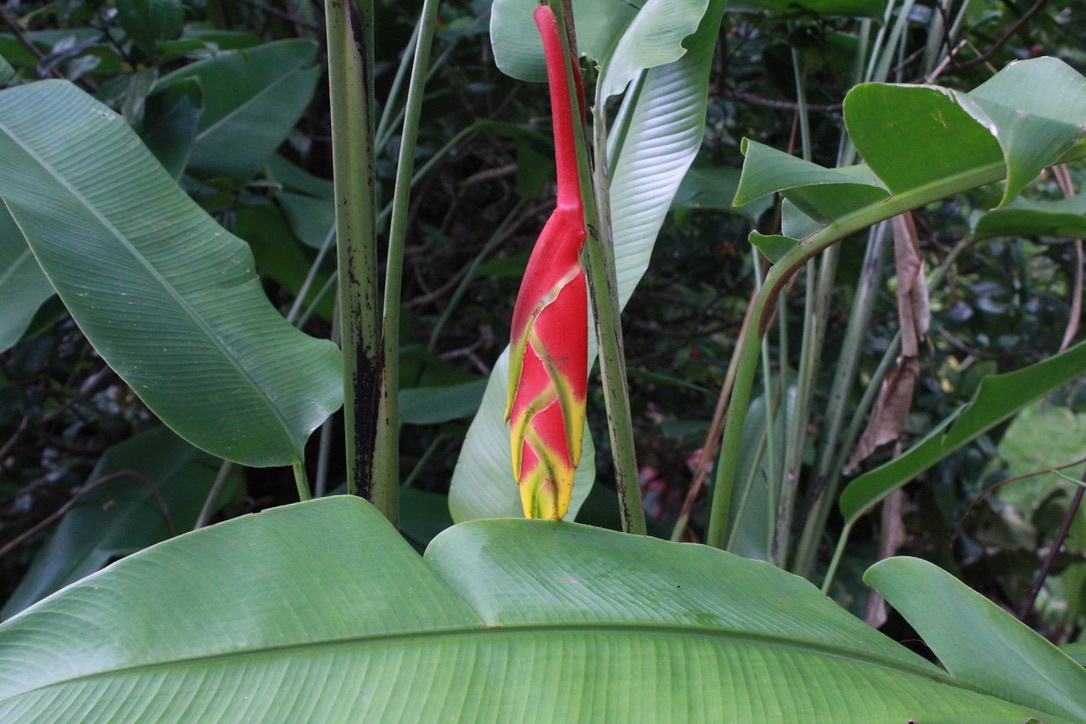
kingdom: Plantae
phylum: Tracheophyta
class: Liliopsida
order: Zingiberales
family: Heliconiaceae
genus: Heliconia
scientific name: Heliconia rostrata
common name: False bird of paradise
